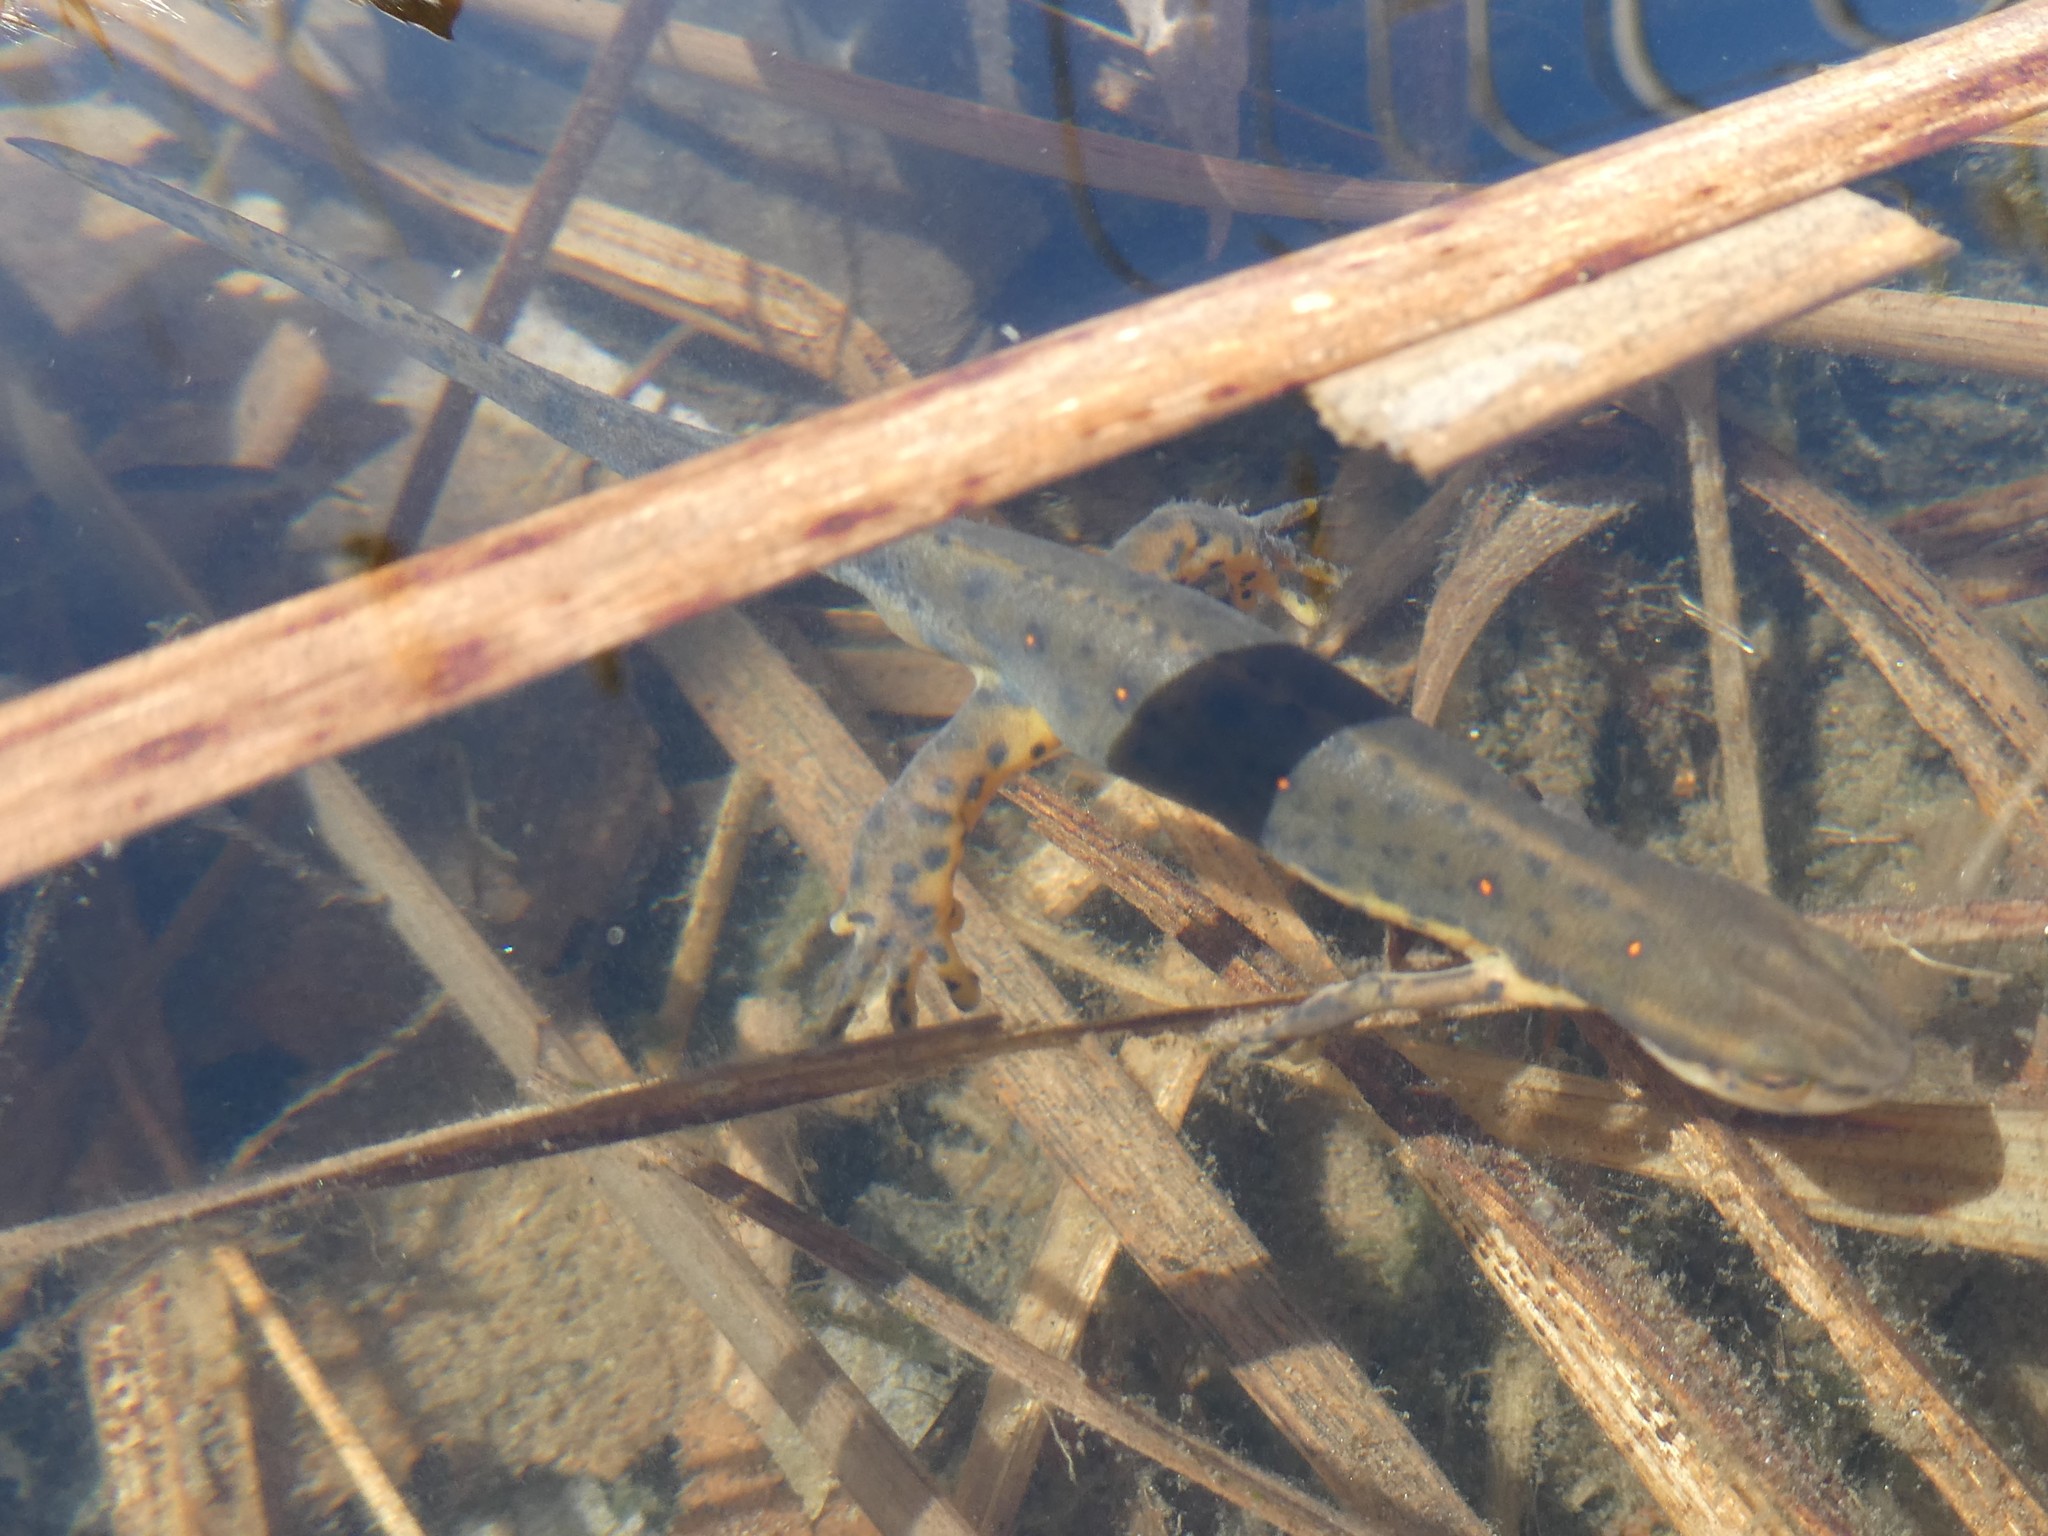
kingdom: Animalia
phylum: Chordata
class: Amphibia
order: Caudata
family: Salamandridae
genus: Notophthalmus
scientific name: Notophthalmus viridescens
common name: Eastern newt
